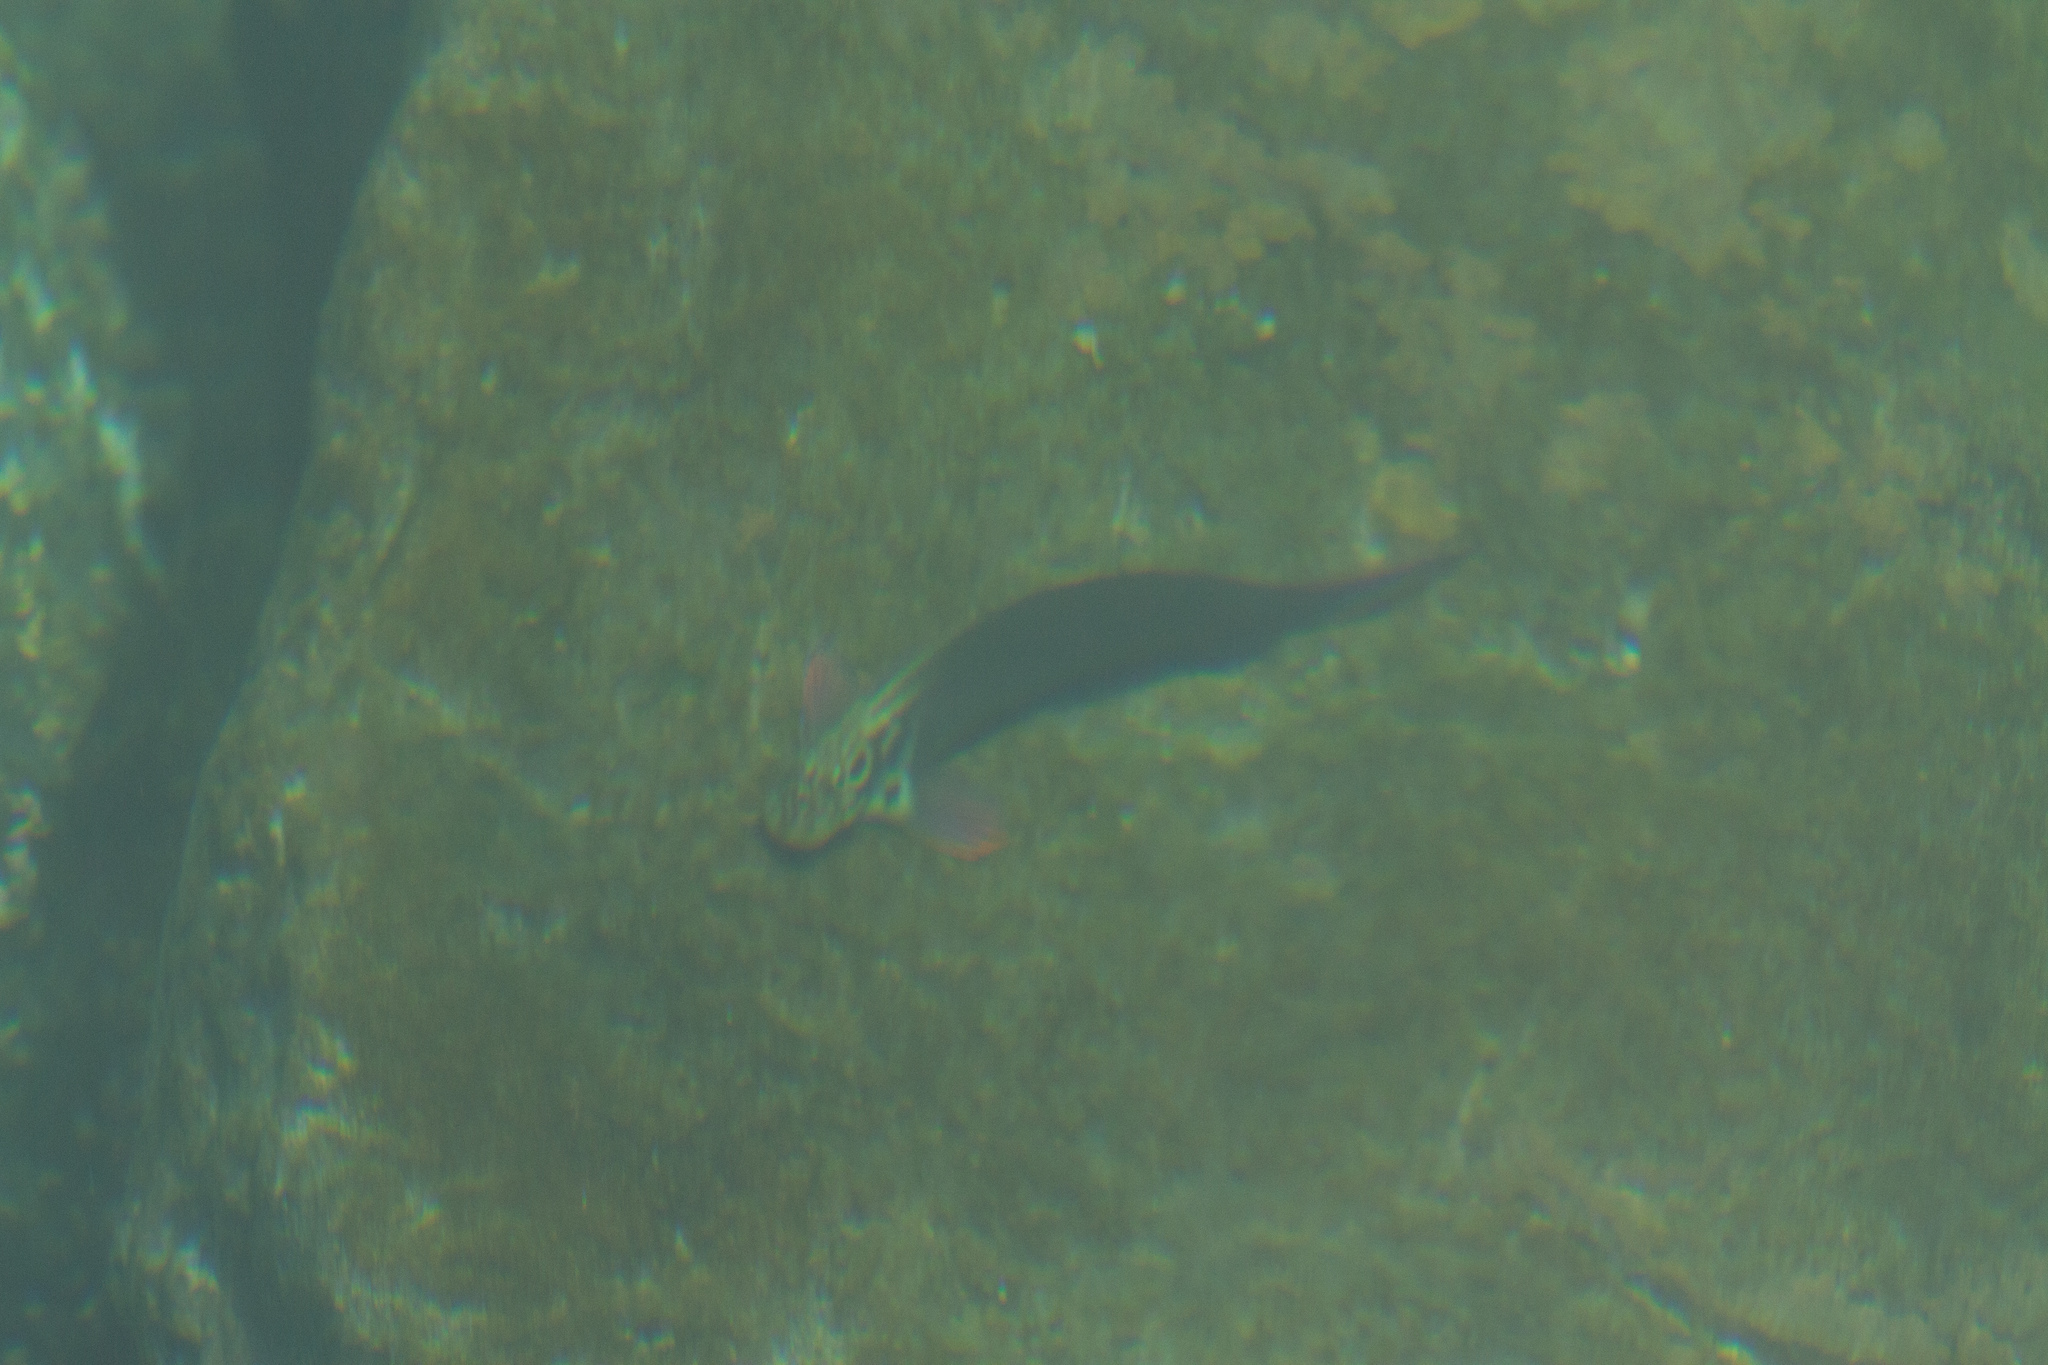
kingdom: Animalia
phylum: Chordata
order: Perciformes
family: Blenniidae
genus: Ophioblennius
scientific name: Ophioblennius atlanticus
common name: Redlip blenny
